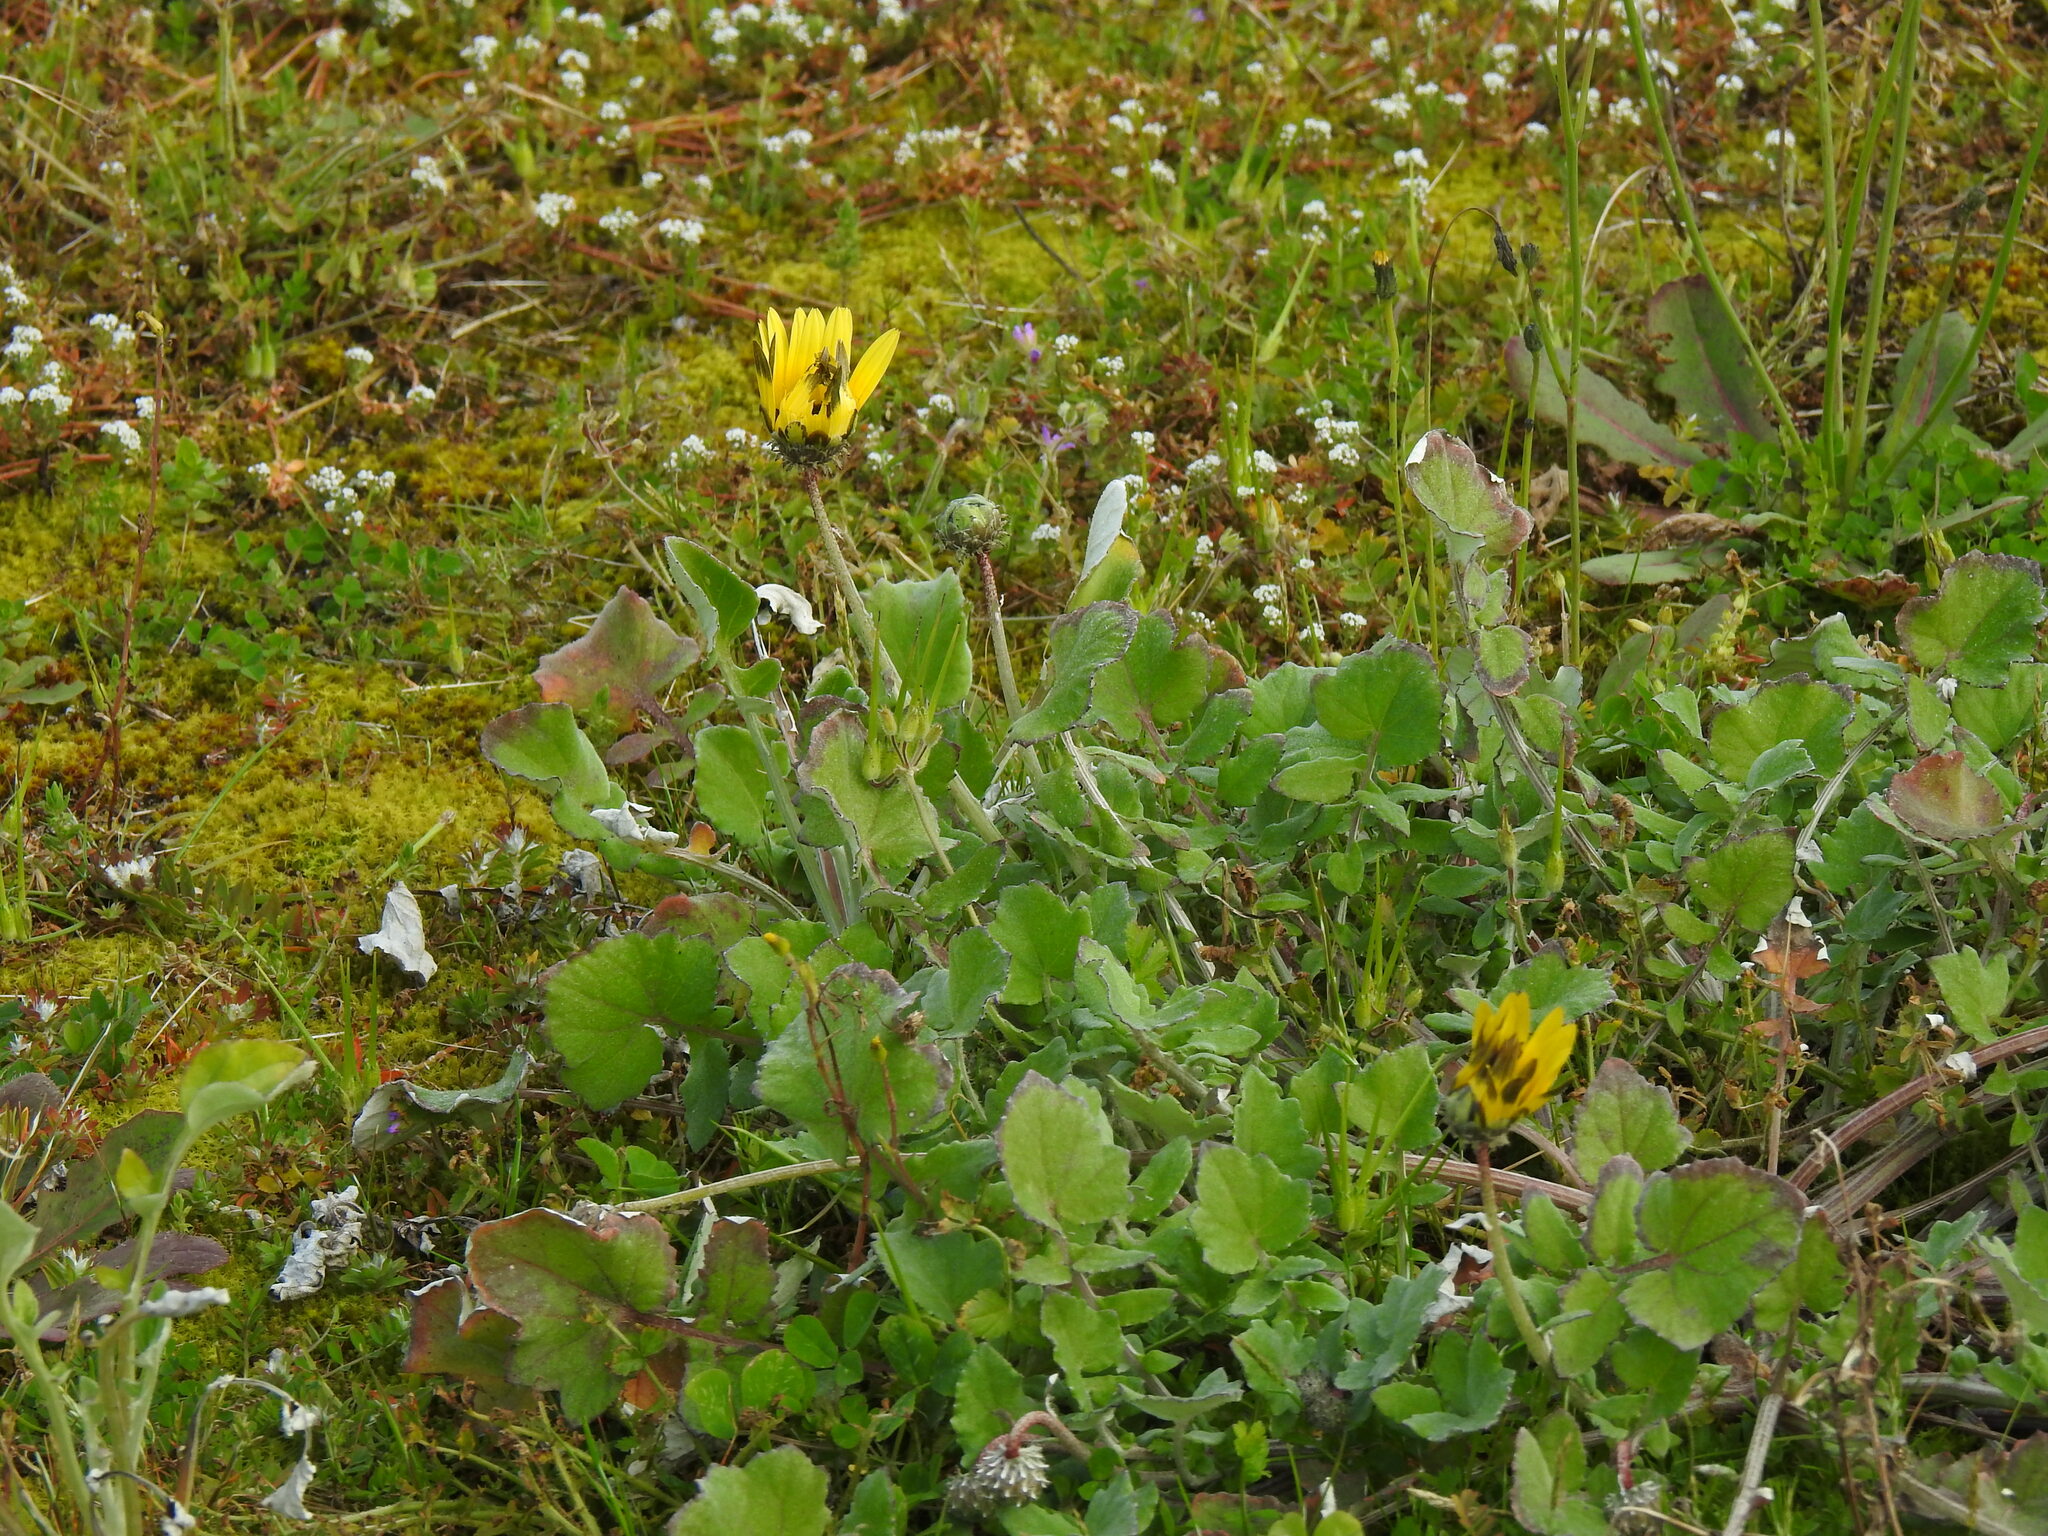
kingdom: Plantae
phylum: Tracheophyta
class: Magnoliopsida
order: Asterales
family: Asteraceae
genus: Arctotheca
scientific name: Arctotheca calendula
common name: Capeweed
